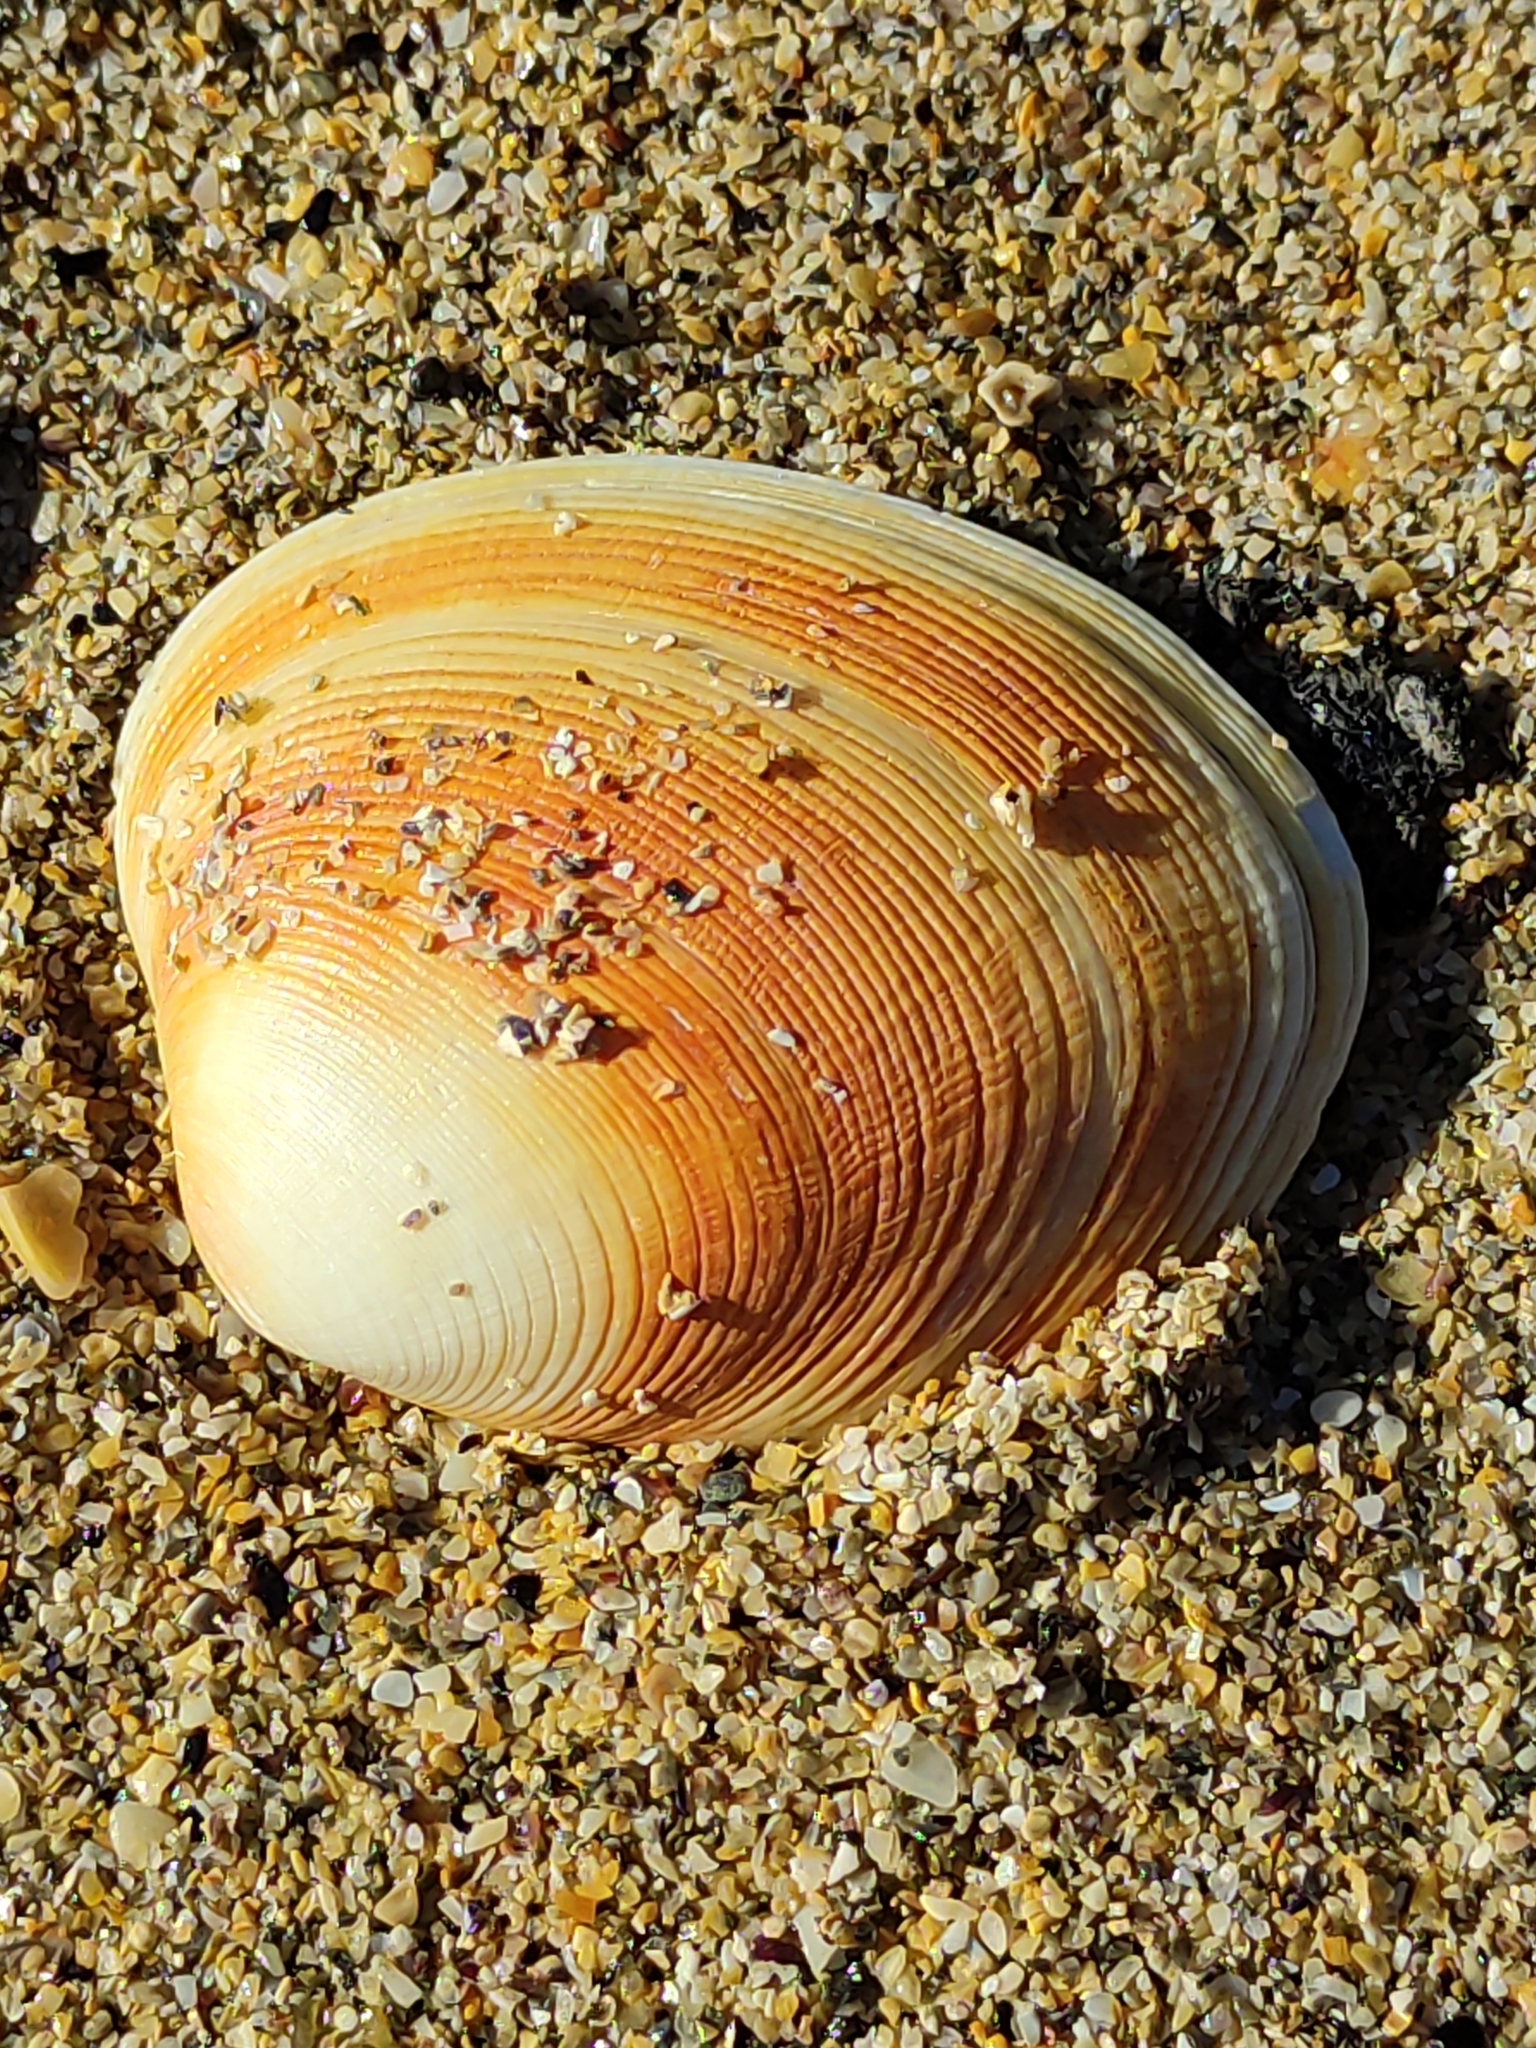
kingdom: Animalia
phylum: Mollusca
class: Bivalvia
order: Venerida
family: Veneridae
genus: Venerupis
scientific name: Venerupis largillierti
